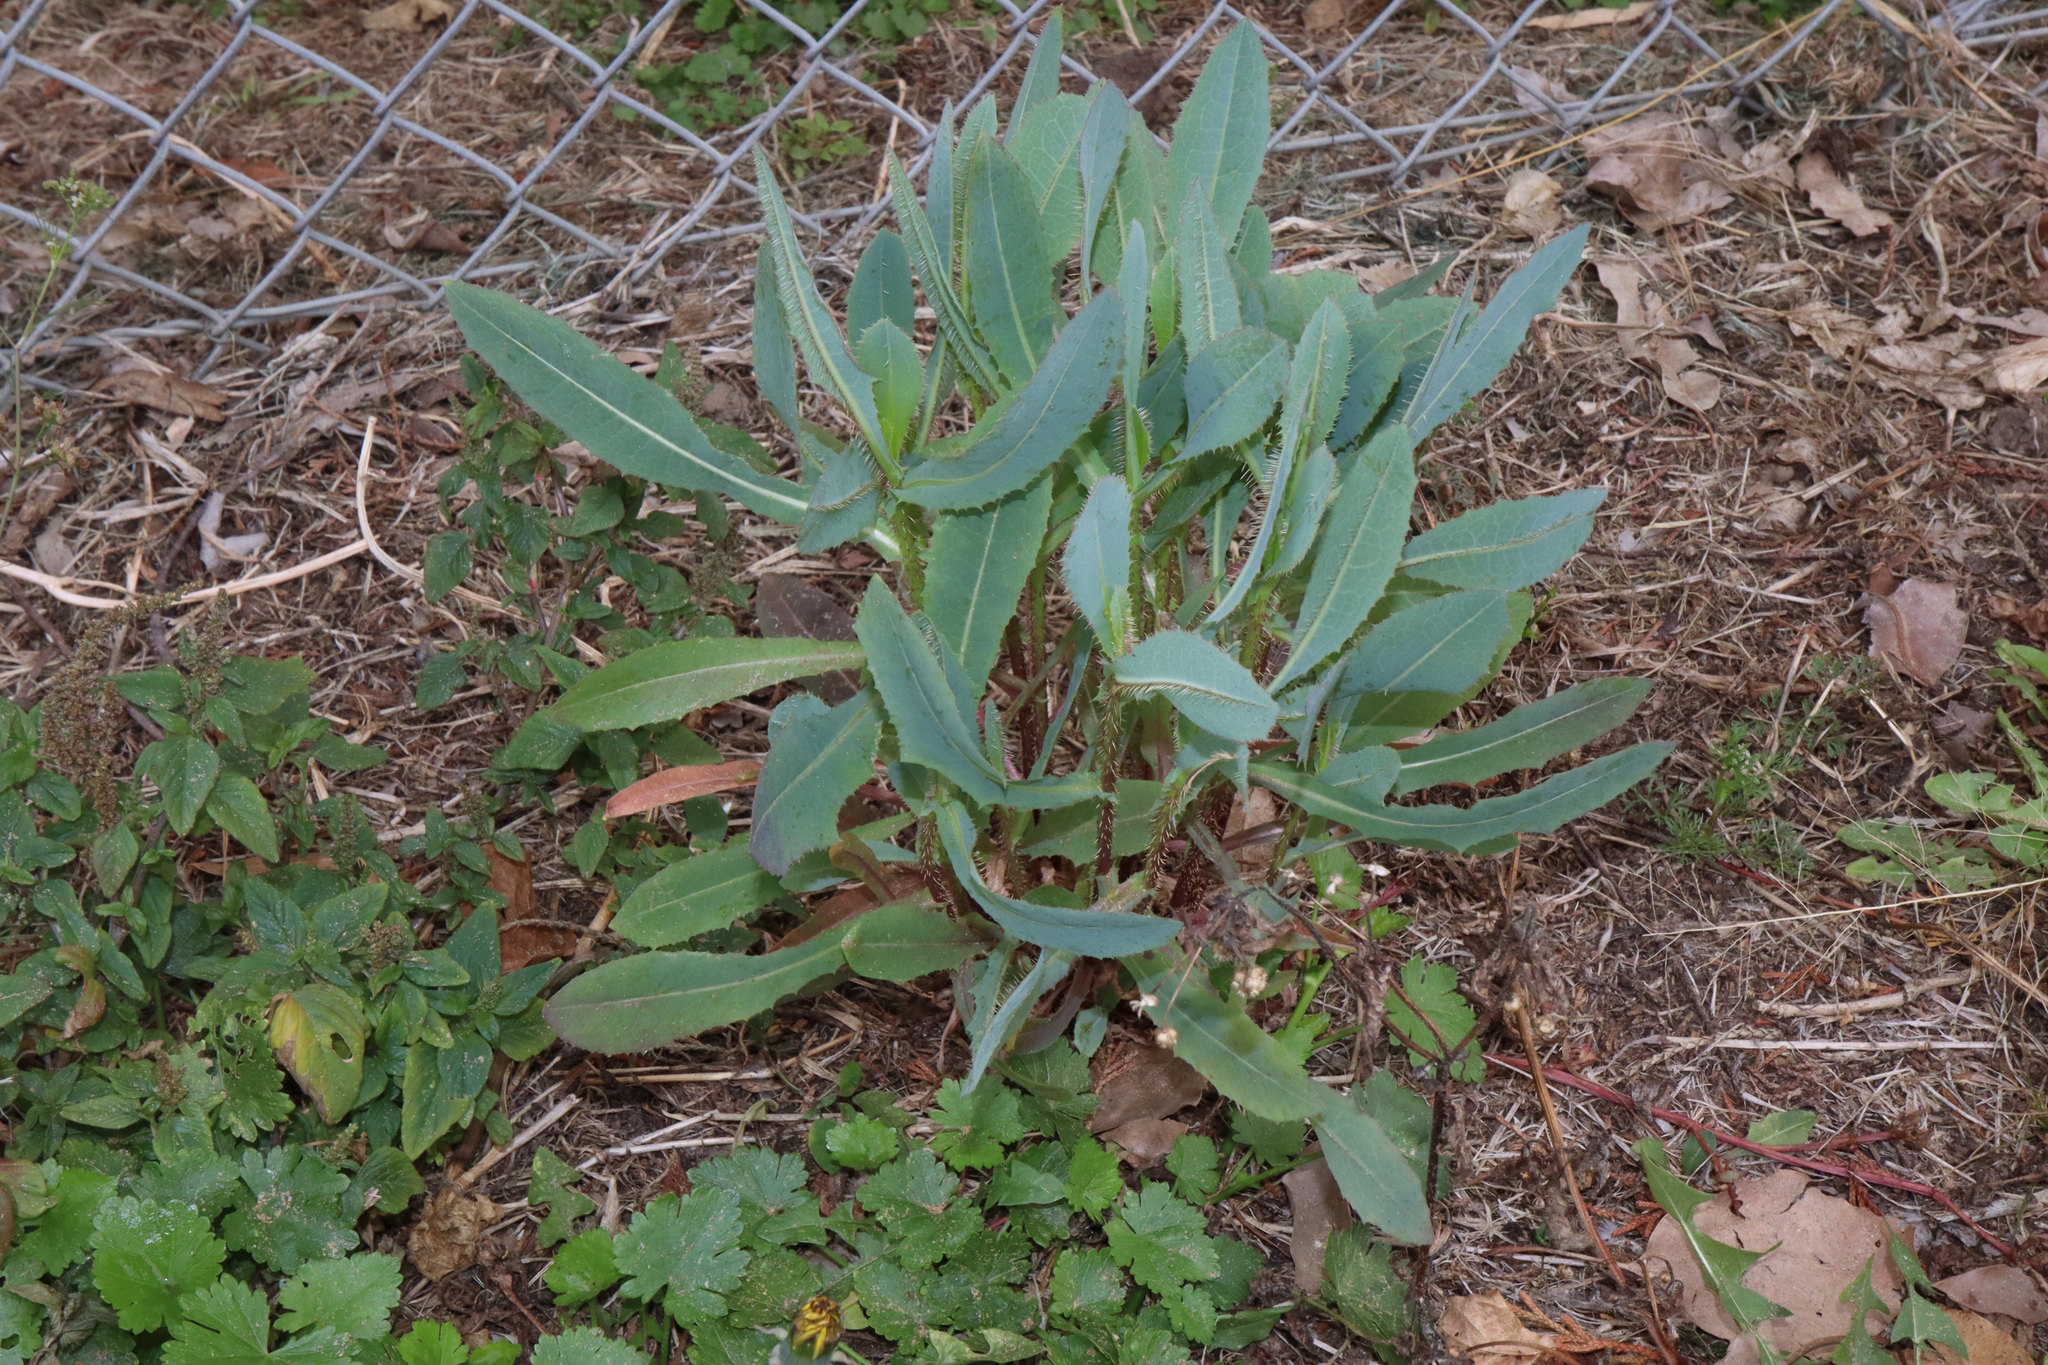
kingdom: Plantae
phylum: Tracheophyta
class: Magnoliopsida
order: Asterales
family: Asteraceae
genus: Lactuca
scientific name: Lactuca serriola
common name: Prickly lettuce
